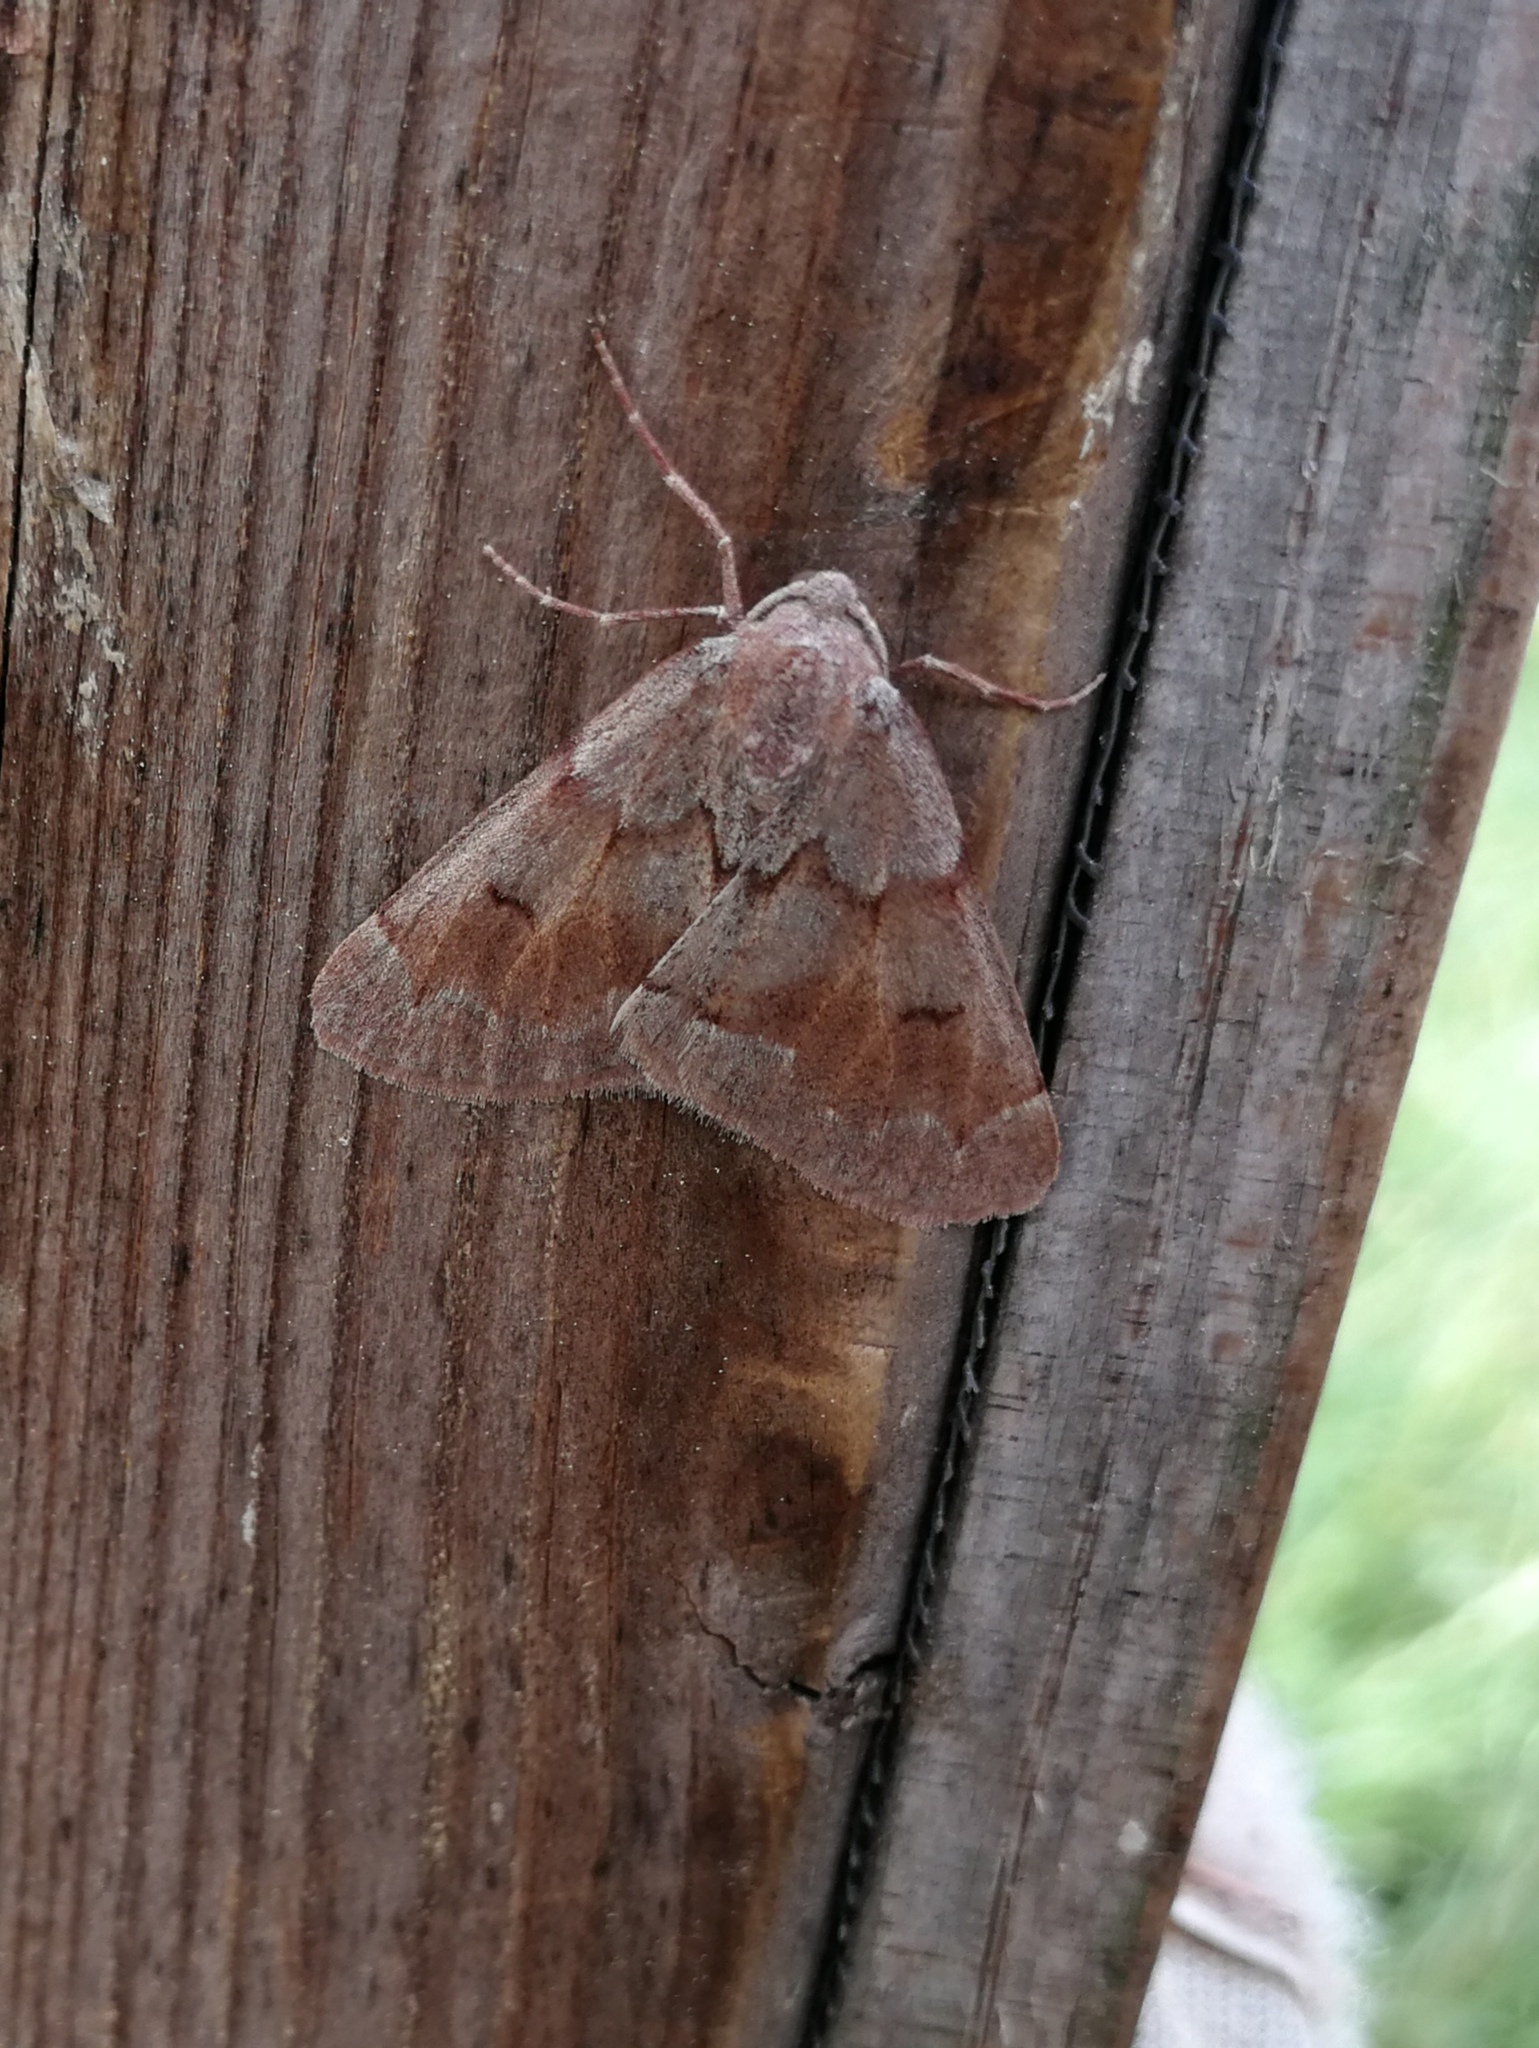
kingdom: Animalia
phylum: Arthropoda
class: Insecta
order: Lepidoptera
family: Geometridae
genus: Adalbertia
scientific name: Adalbertia castiliaria
